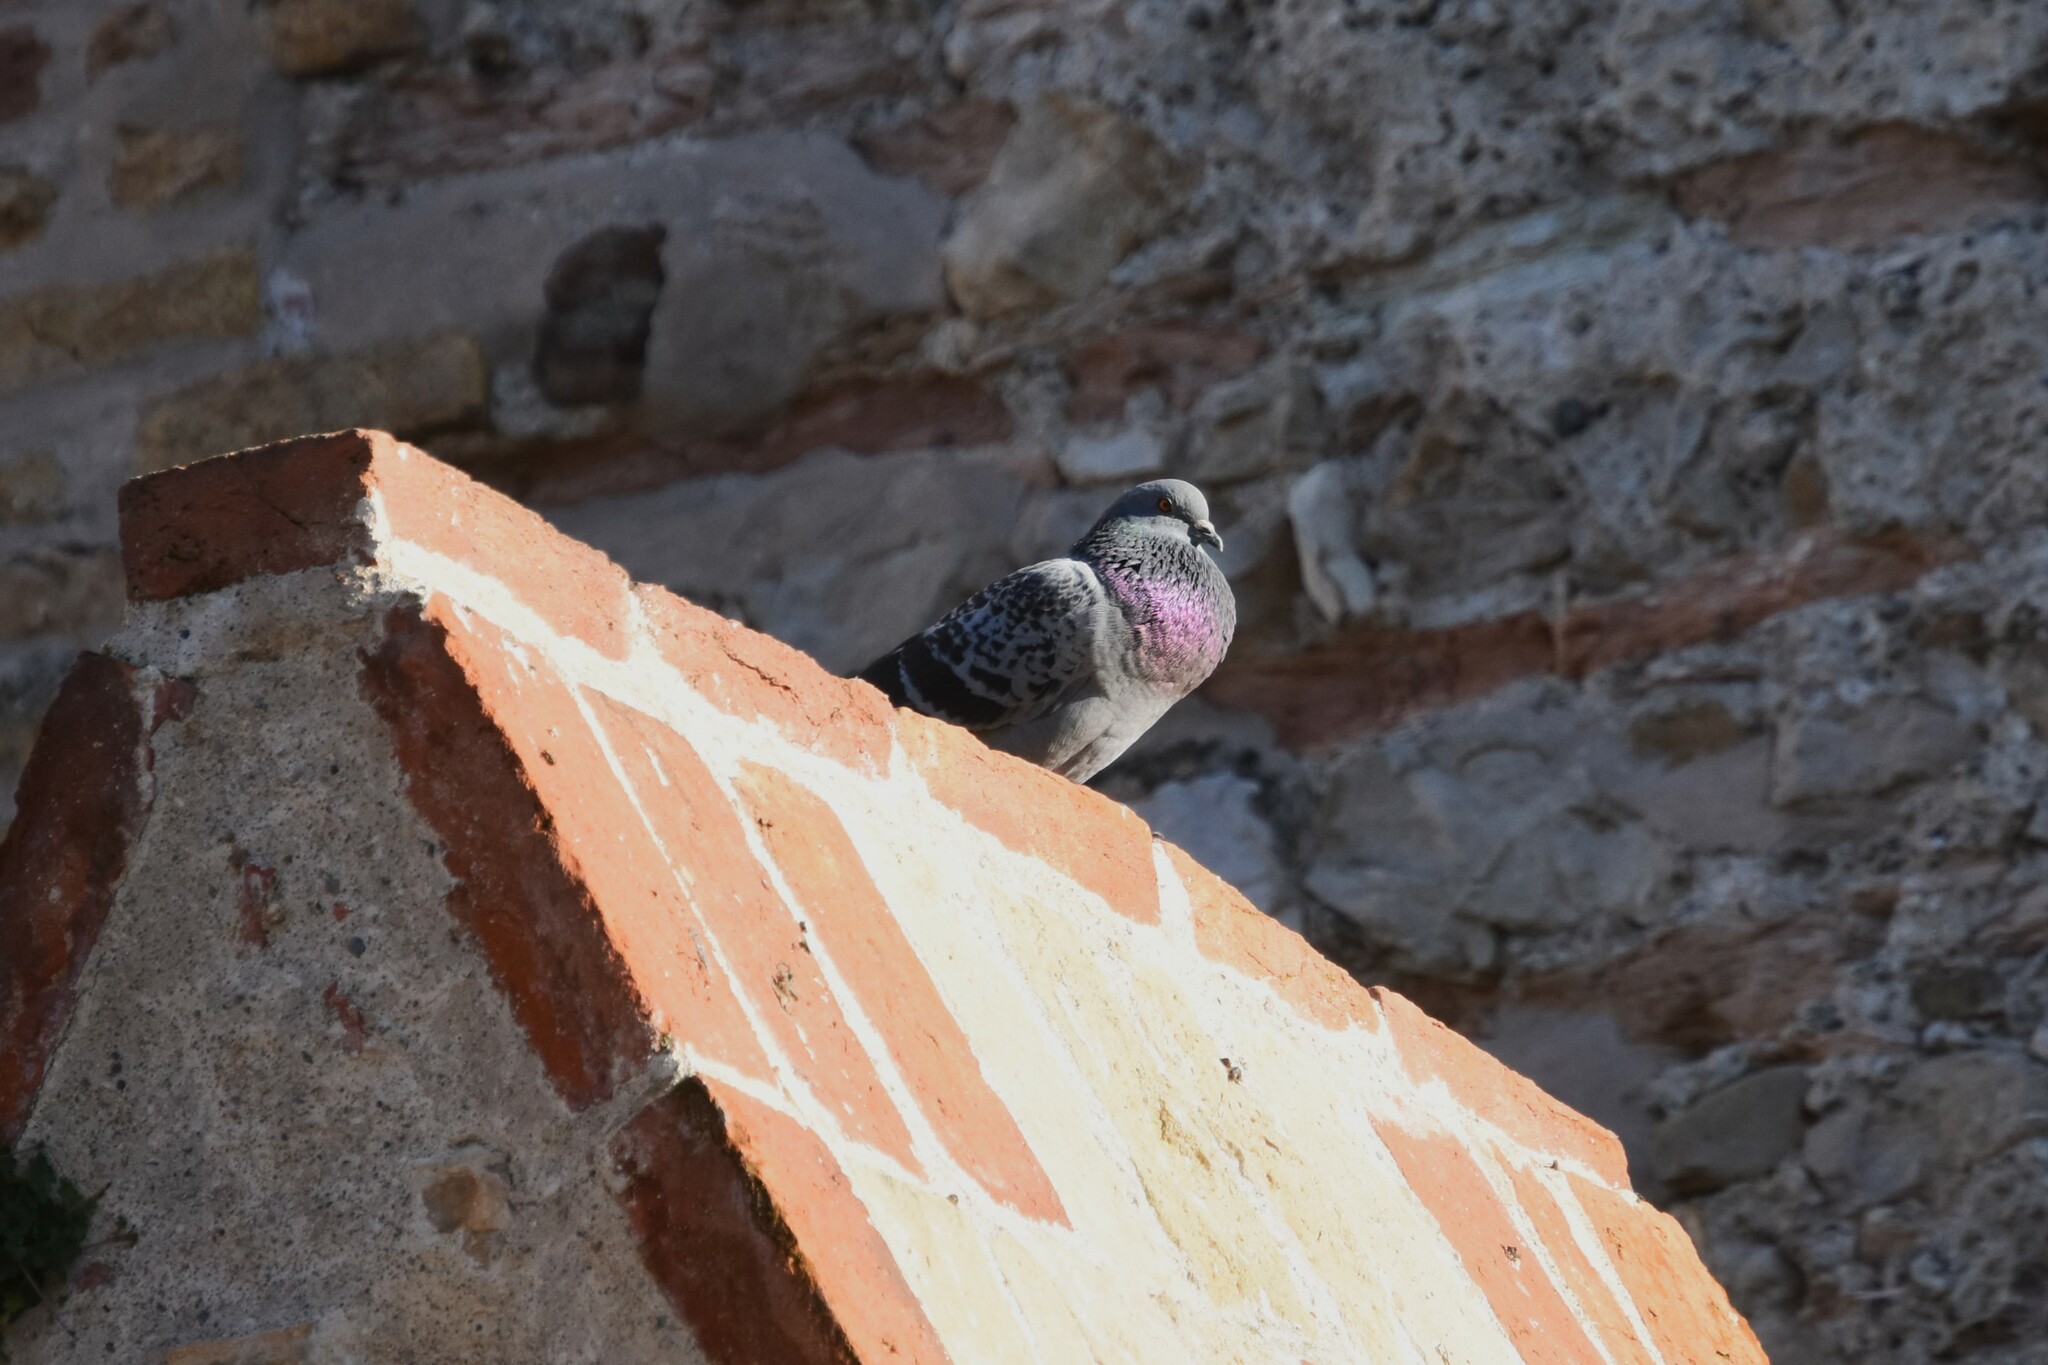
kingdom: Animalia
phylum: Chordata
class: Aves
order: Columbiformes
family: Columbidae
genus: Columba
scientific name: Columba livia
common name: Rock pigeon
